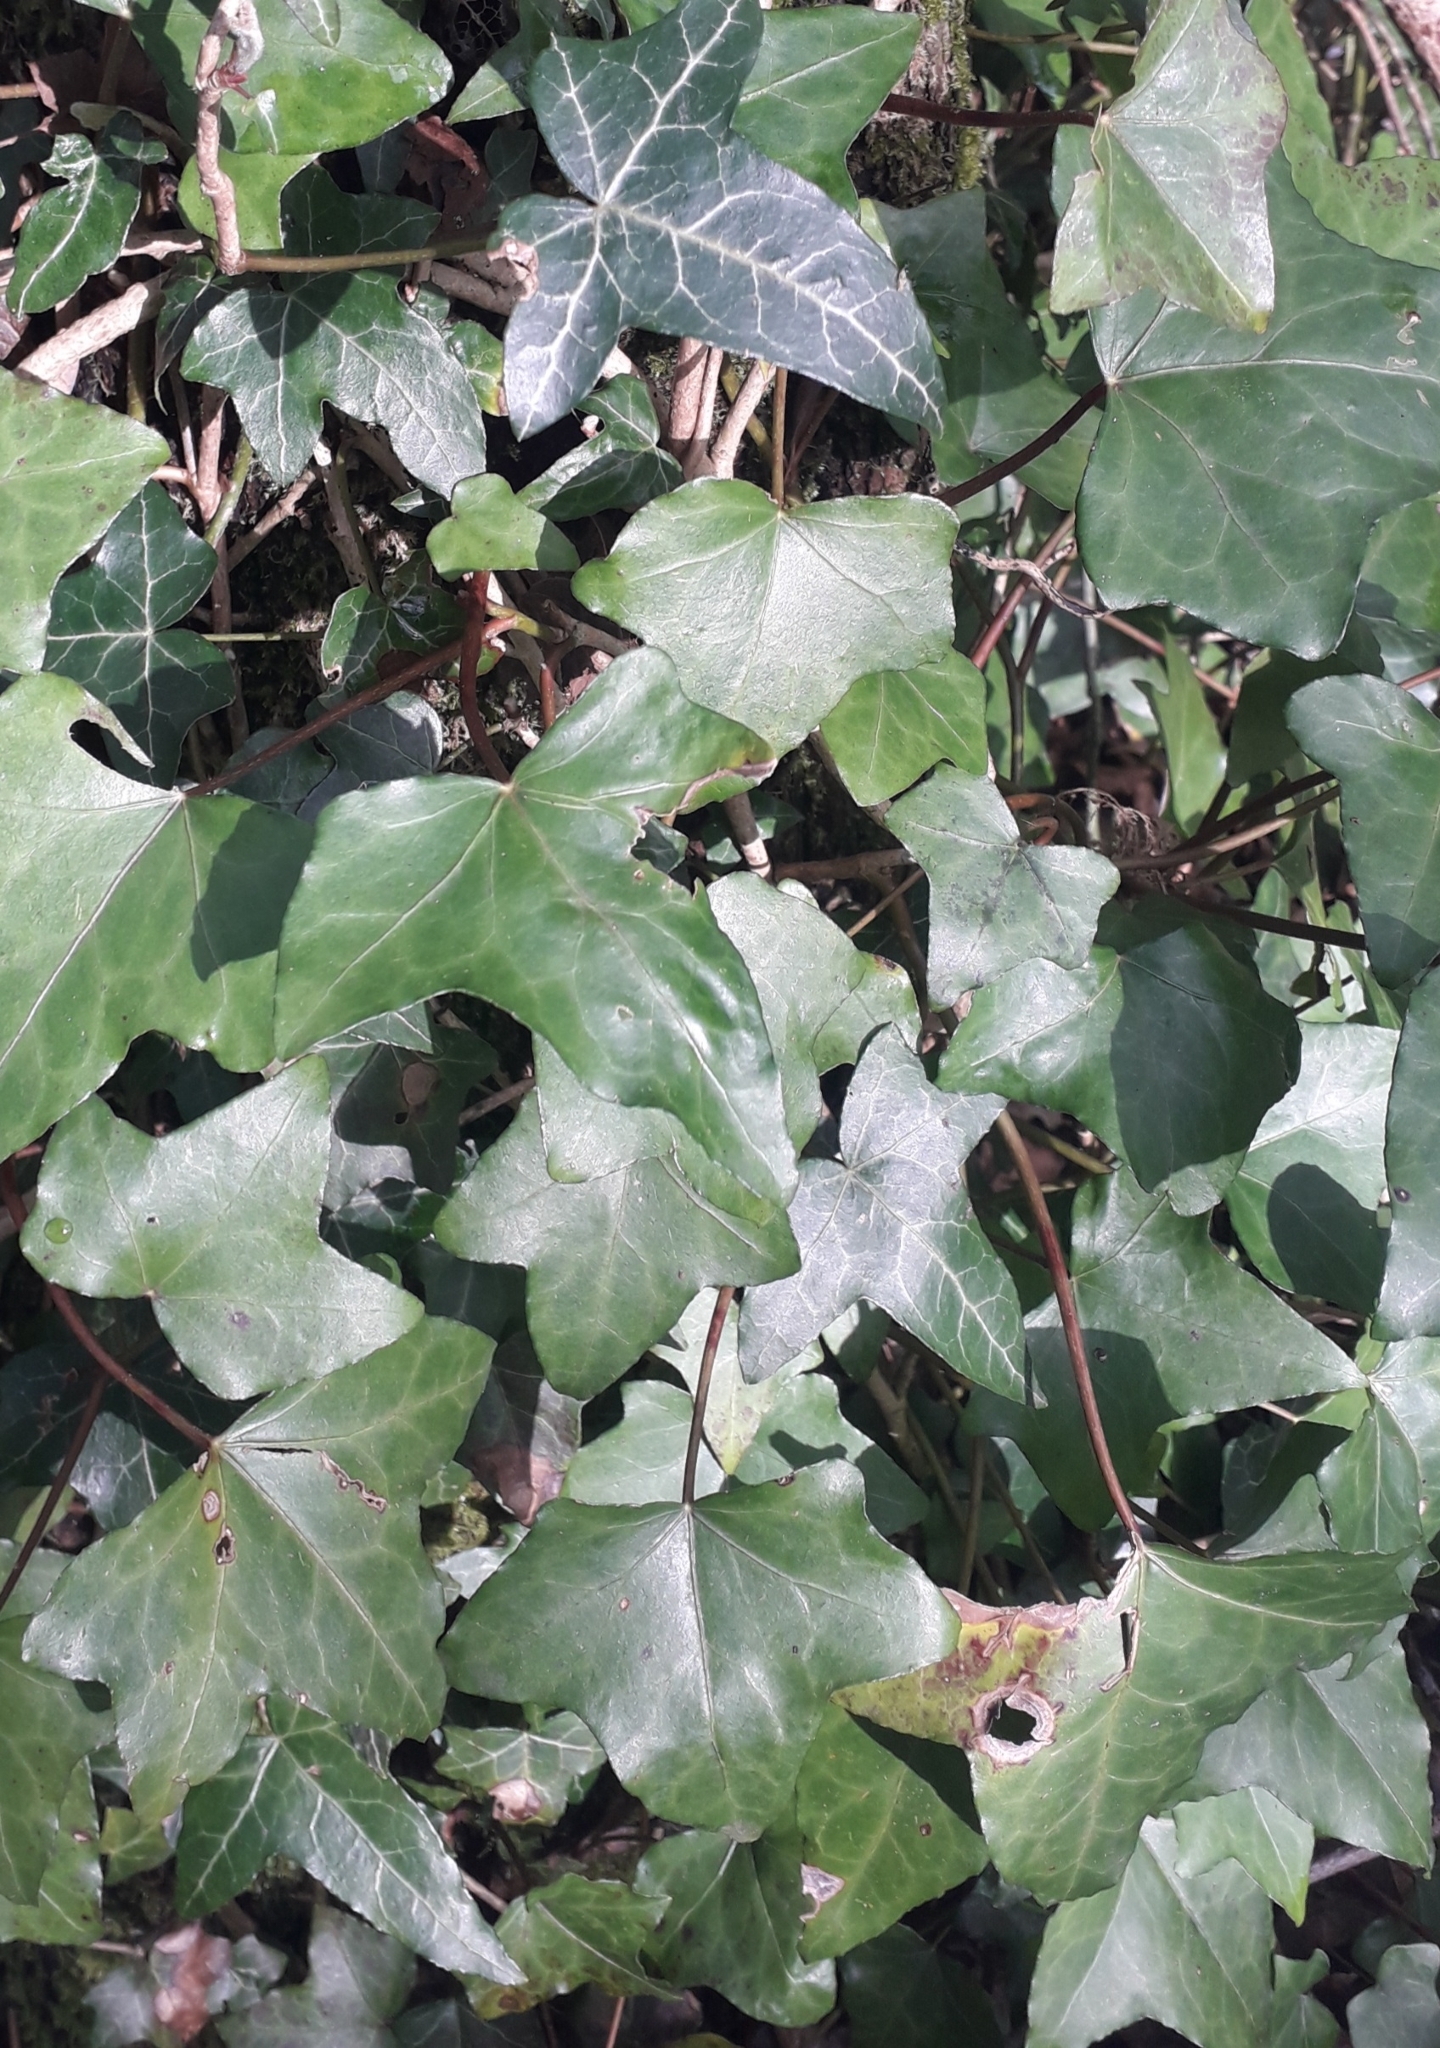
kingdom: Plantae
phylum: Tracheophyta
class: Magnoliopsida
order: Apiales
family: Araliaceae
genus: Hedera
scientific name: Hedera helix
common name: Ivy
